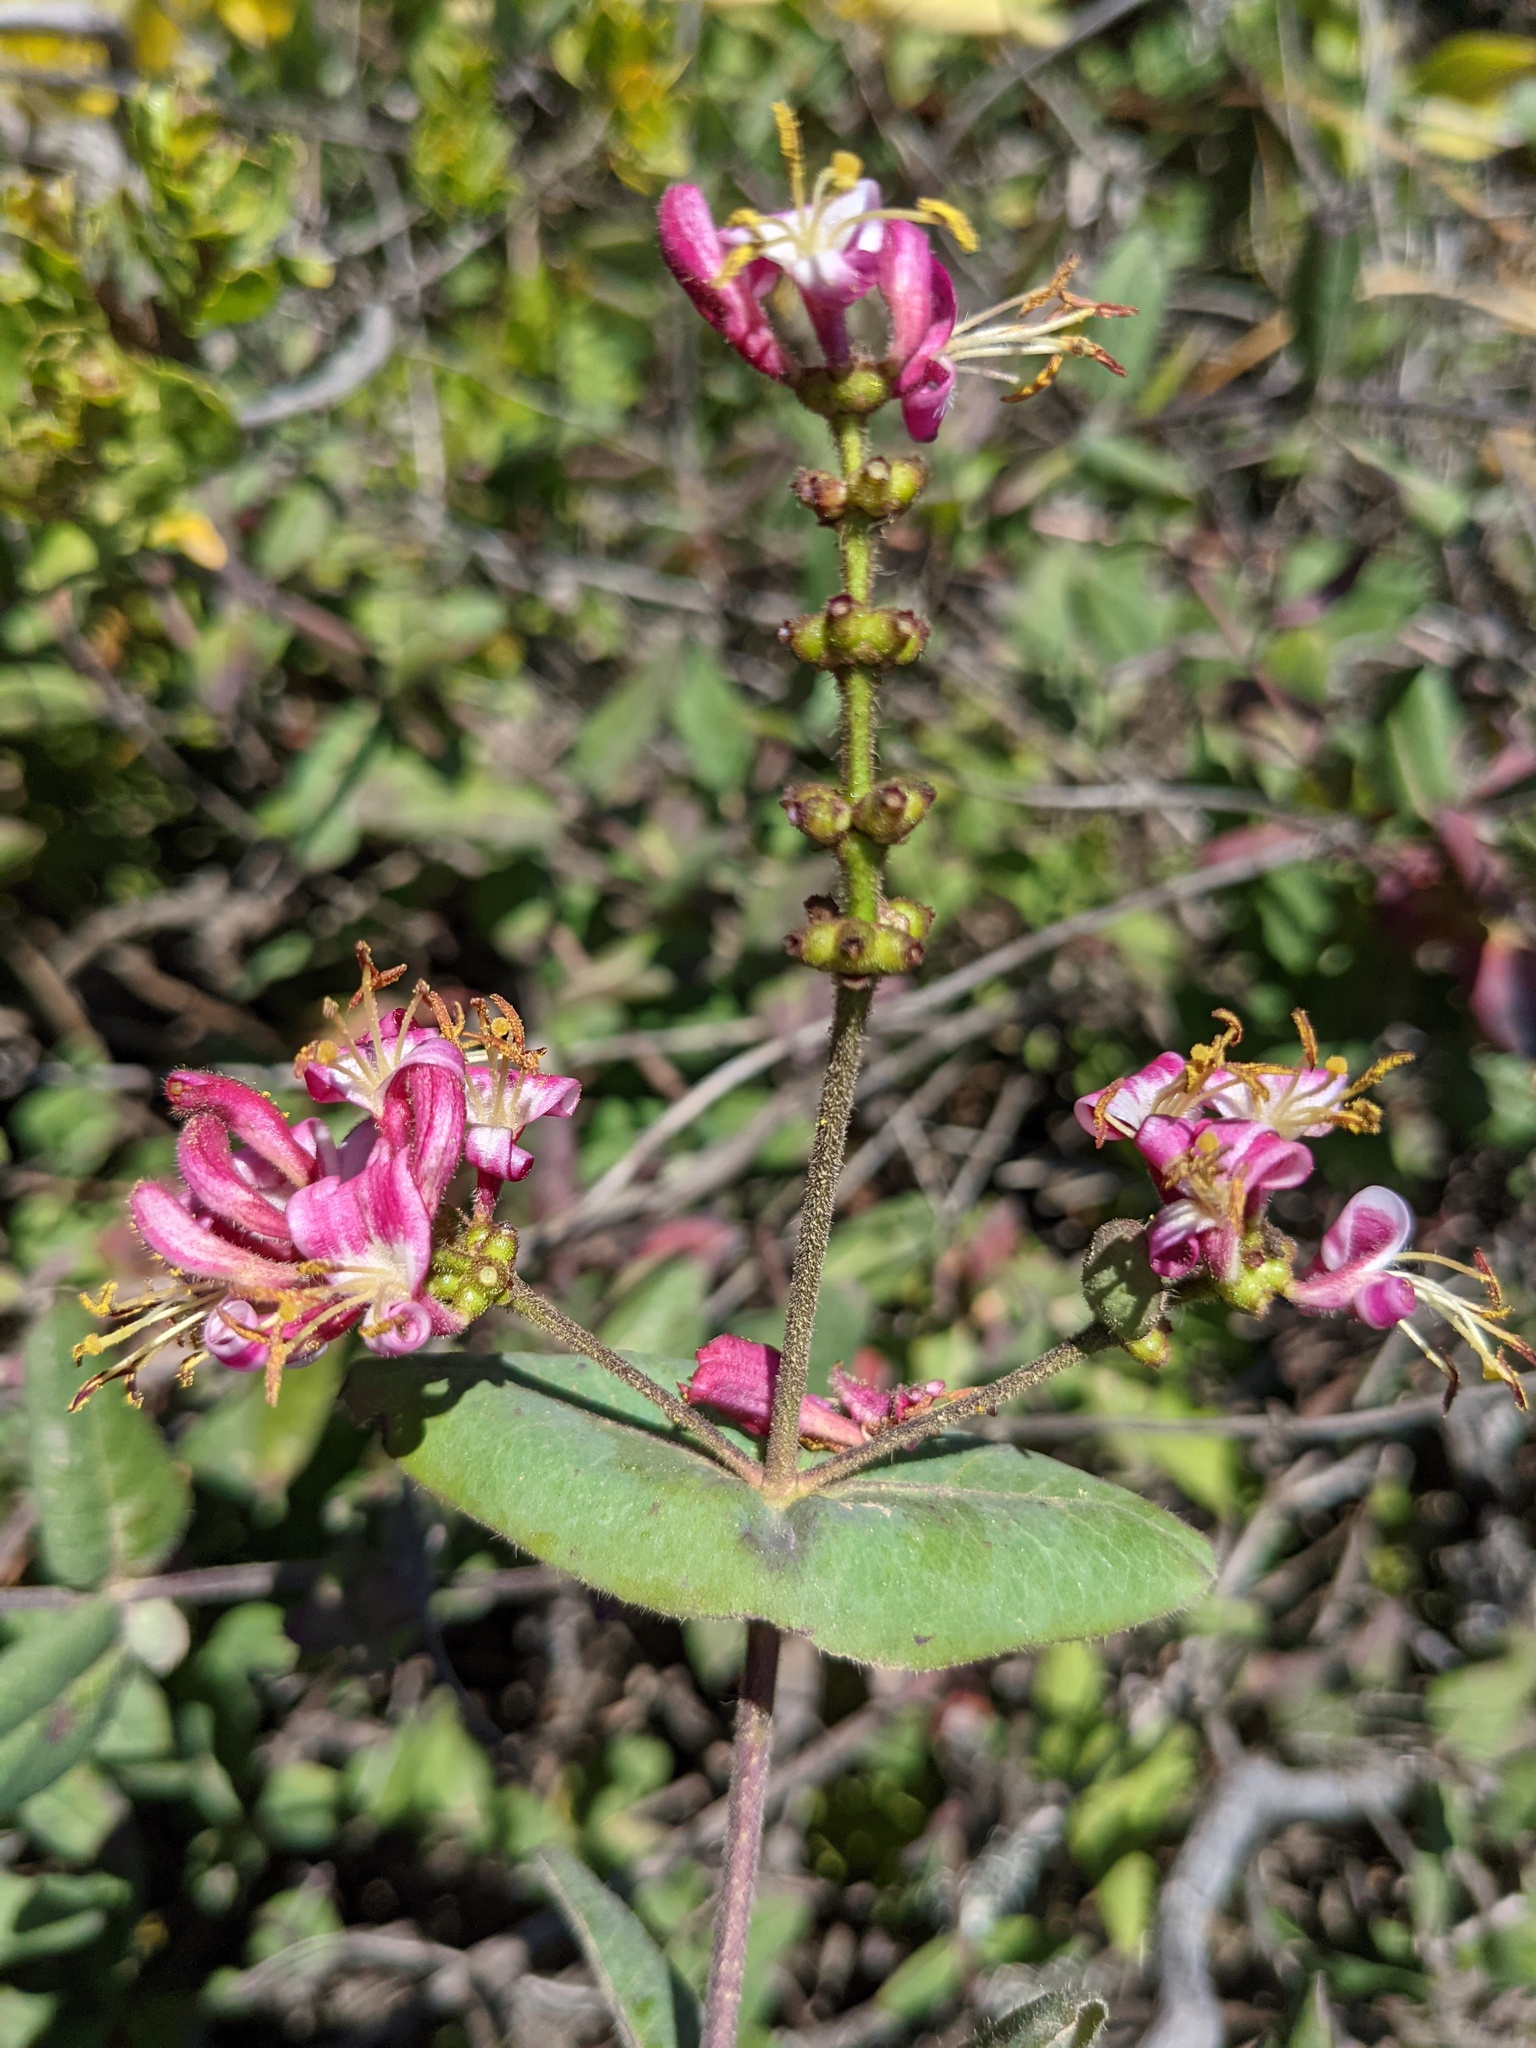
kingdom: Plantae
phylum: Tracheophyta
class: Magnoliopsida
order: Dipsacales
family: Caprifoliaceae
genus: Lonicera
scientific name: Lonicera hispidula
